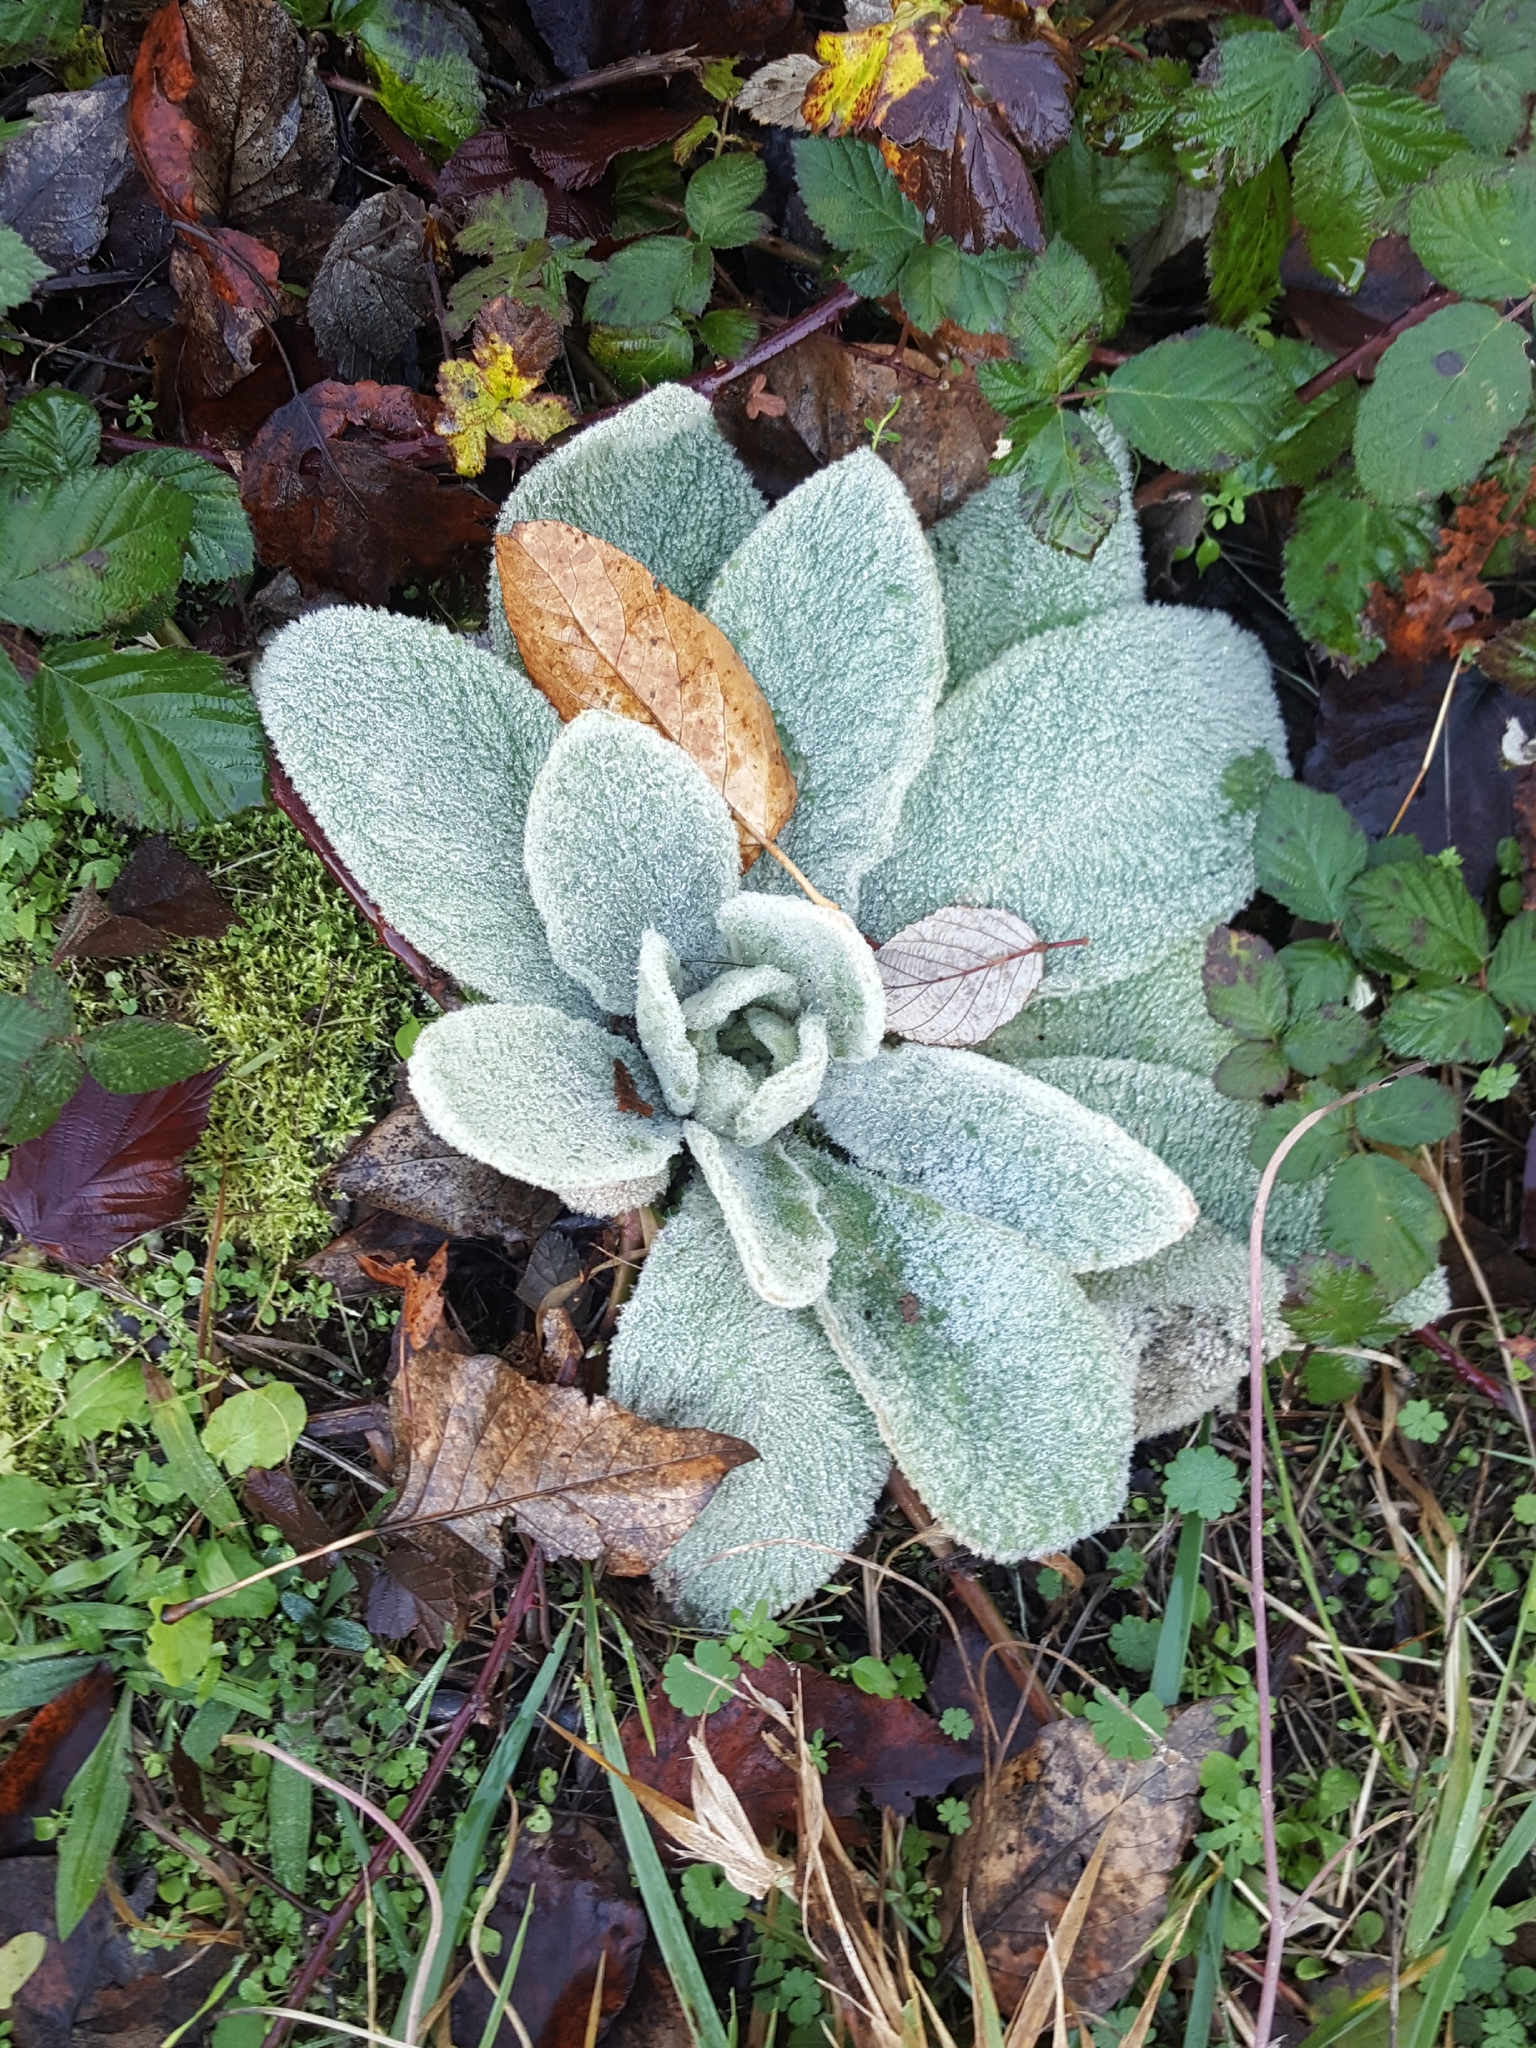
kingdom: Plantae
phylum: Tracheophyta
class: Magnoliopsida
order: Lamiales
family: Scrophulariaceae
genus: Verbascum
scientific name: Verbascum thapsus
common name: Common mullein
